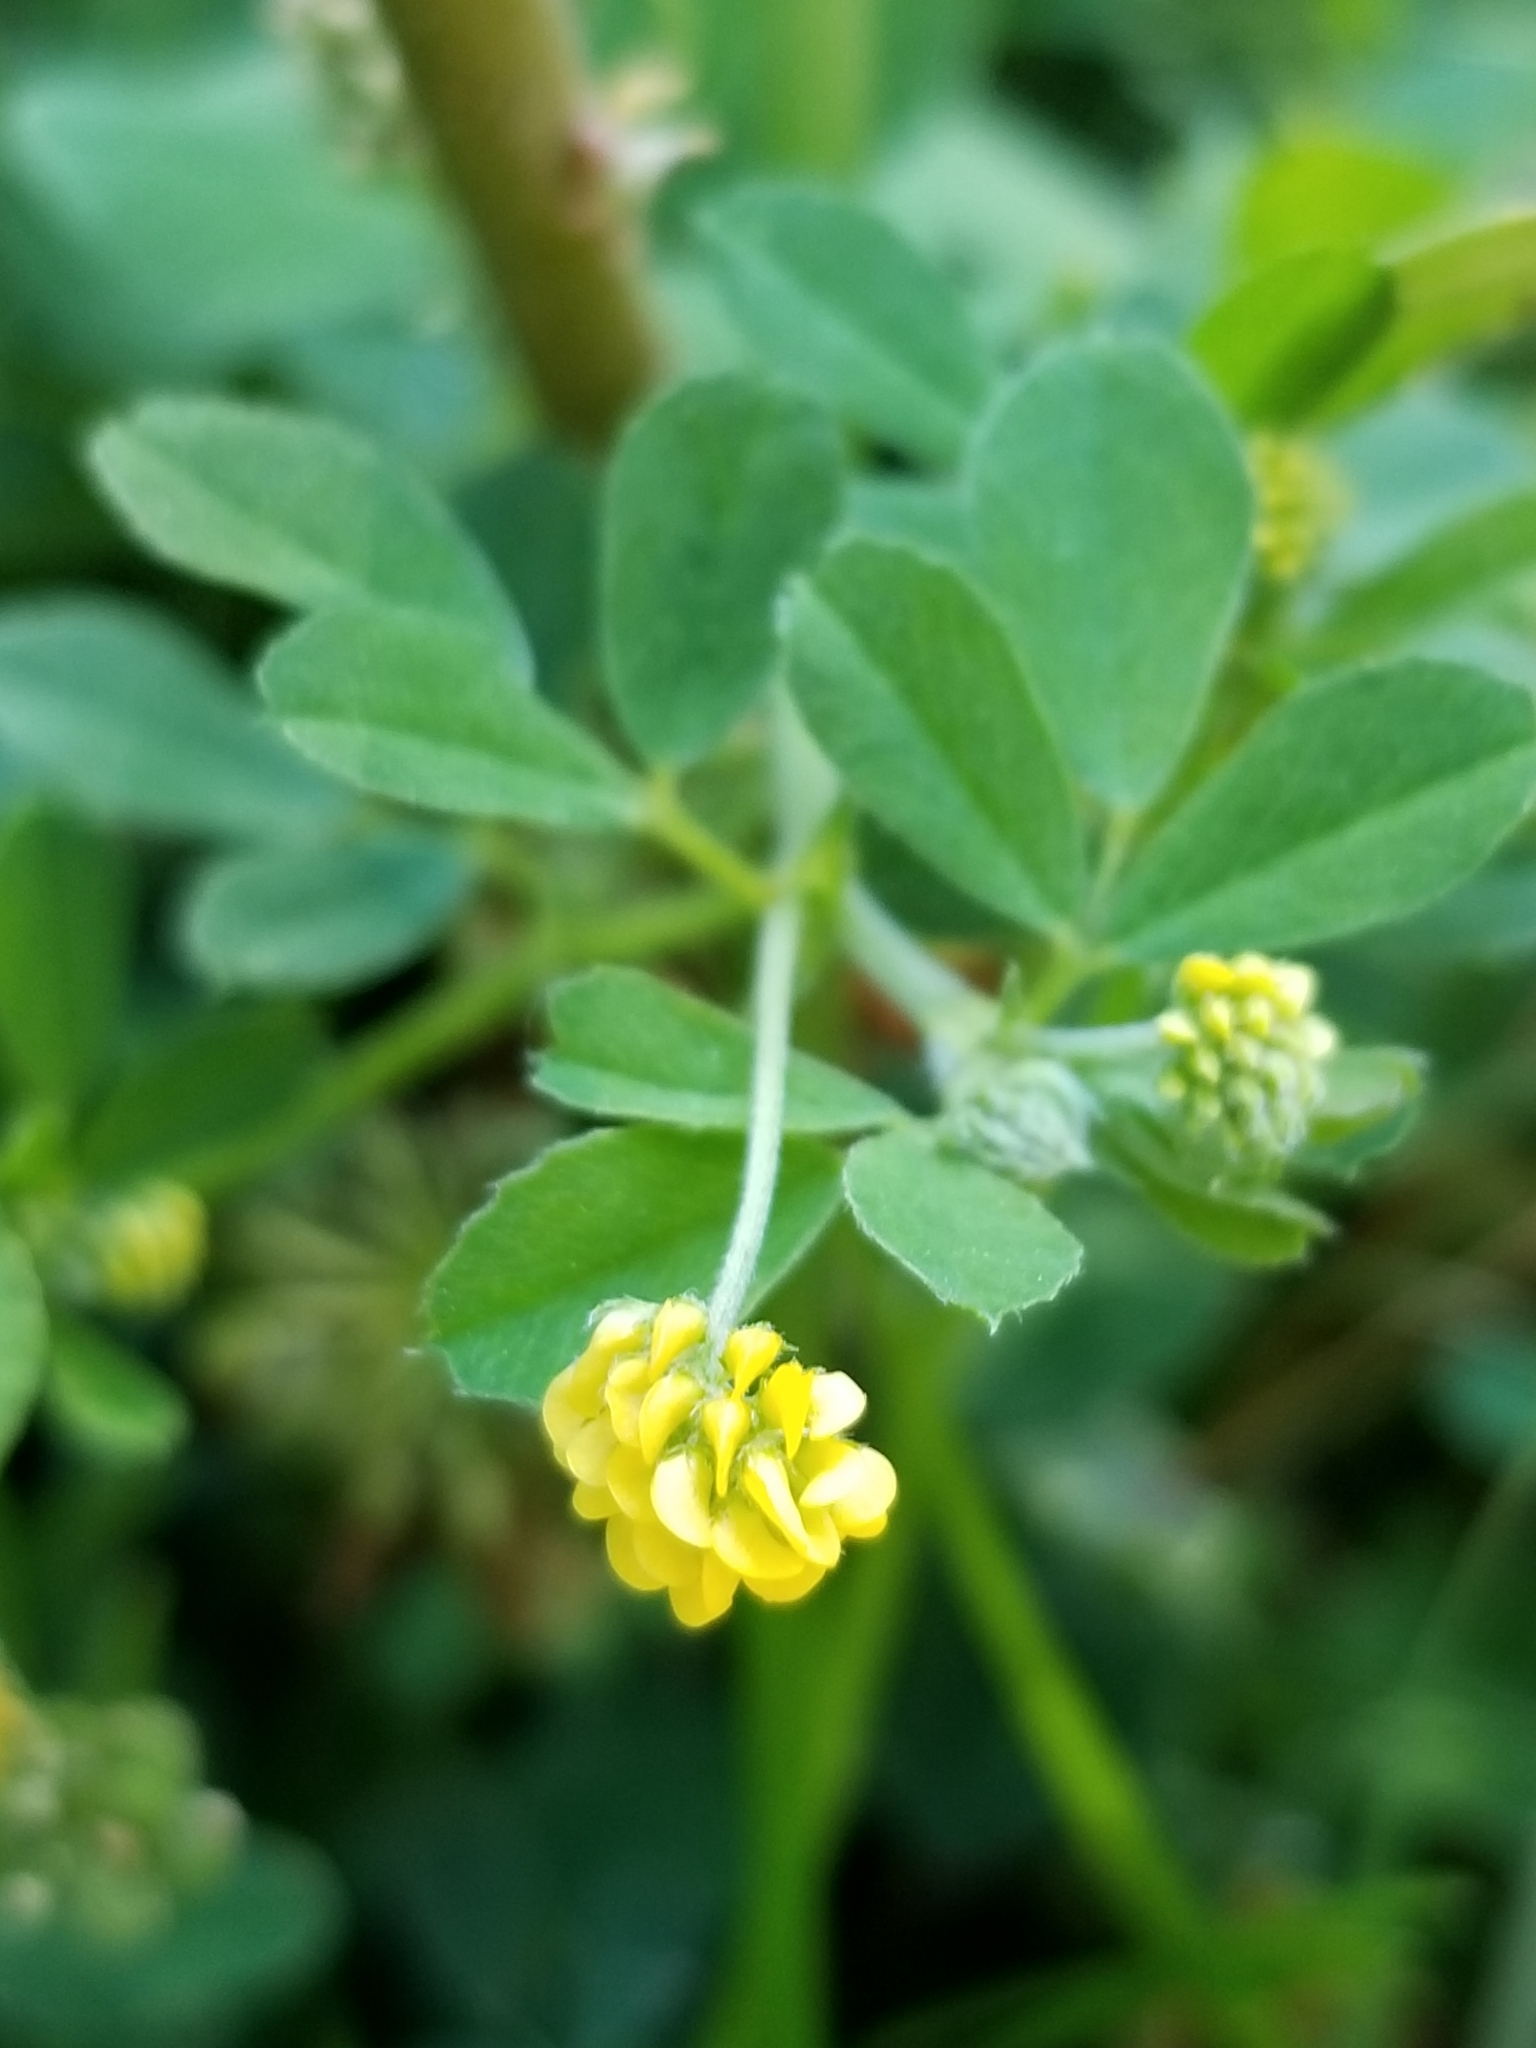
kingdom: Plantae
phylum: Tracheophyta
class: Magnoliopsida
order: Fabales
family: Fabaceae
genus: Medicago
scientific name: Medicago lupulina
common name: Black medick
